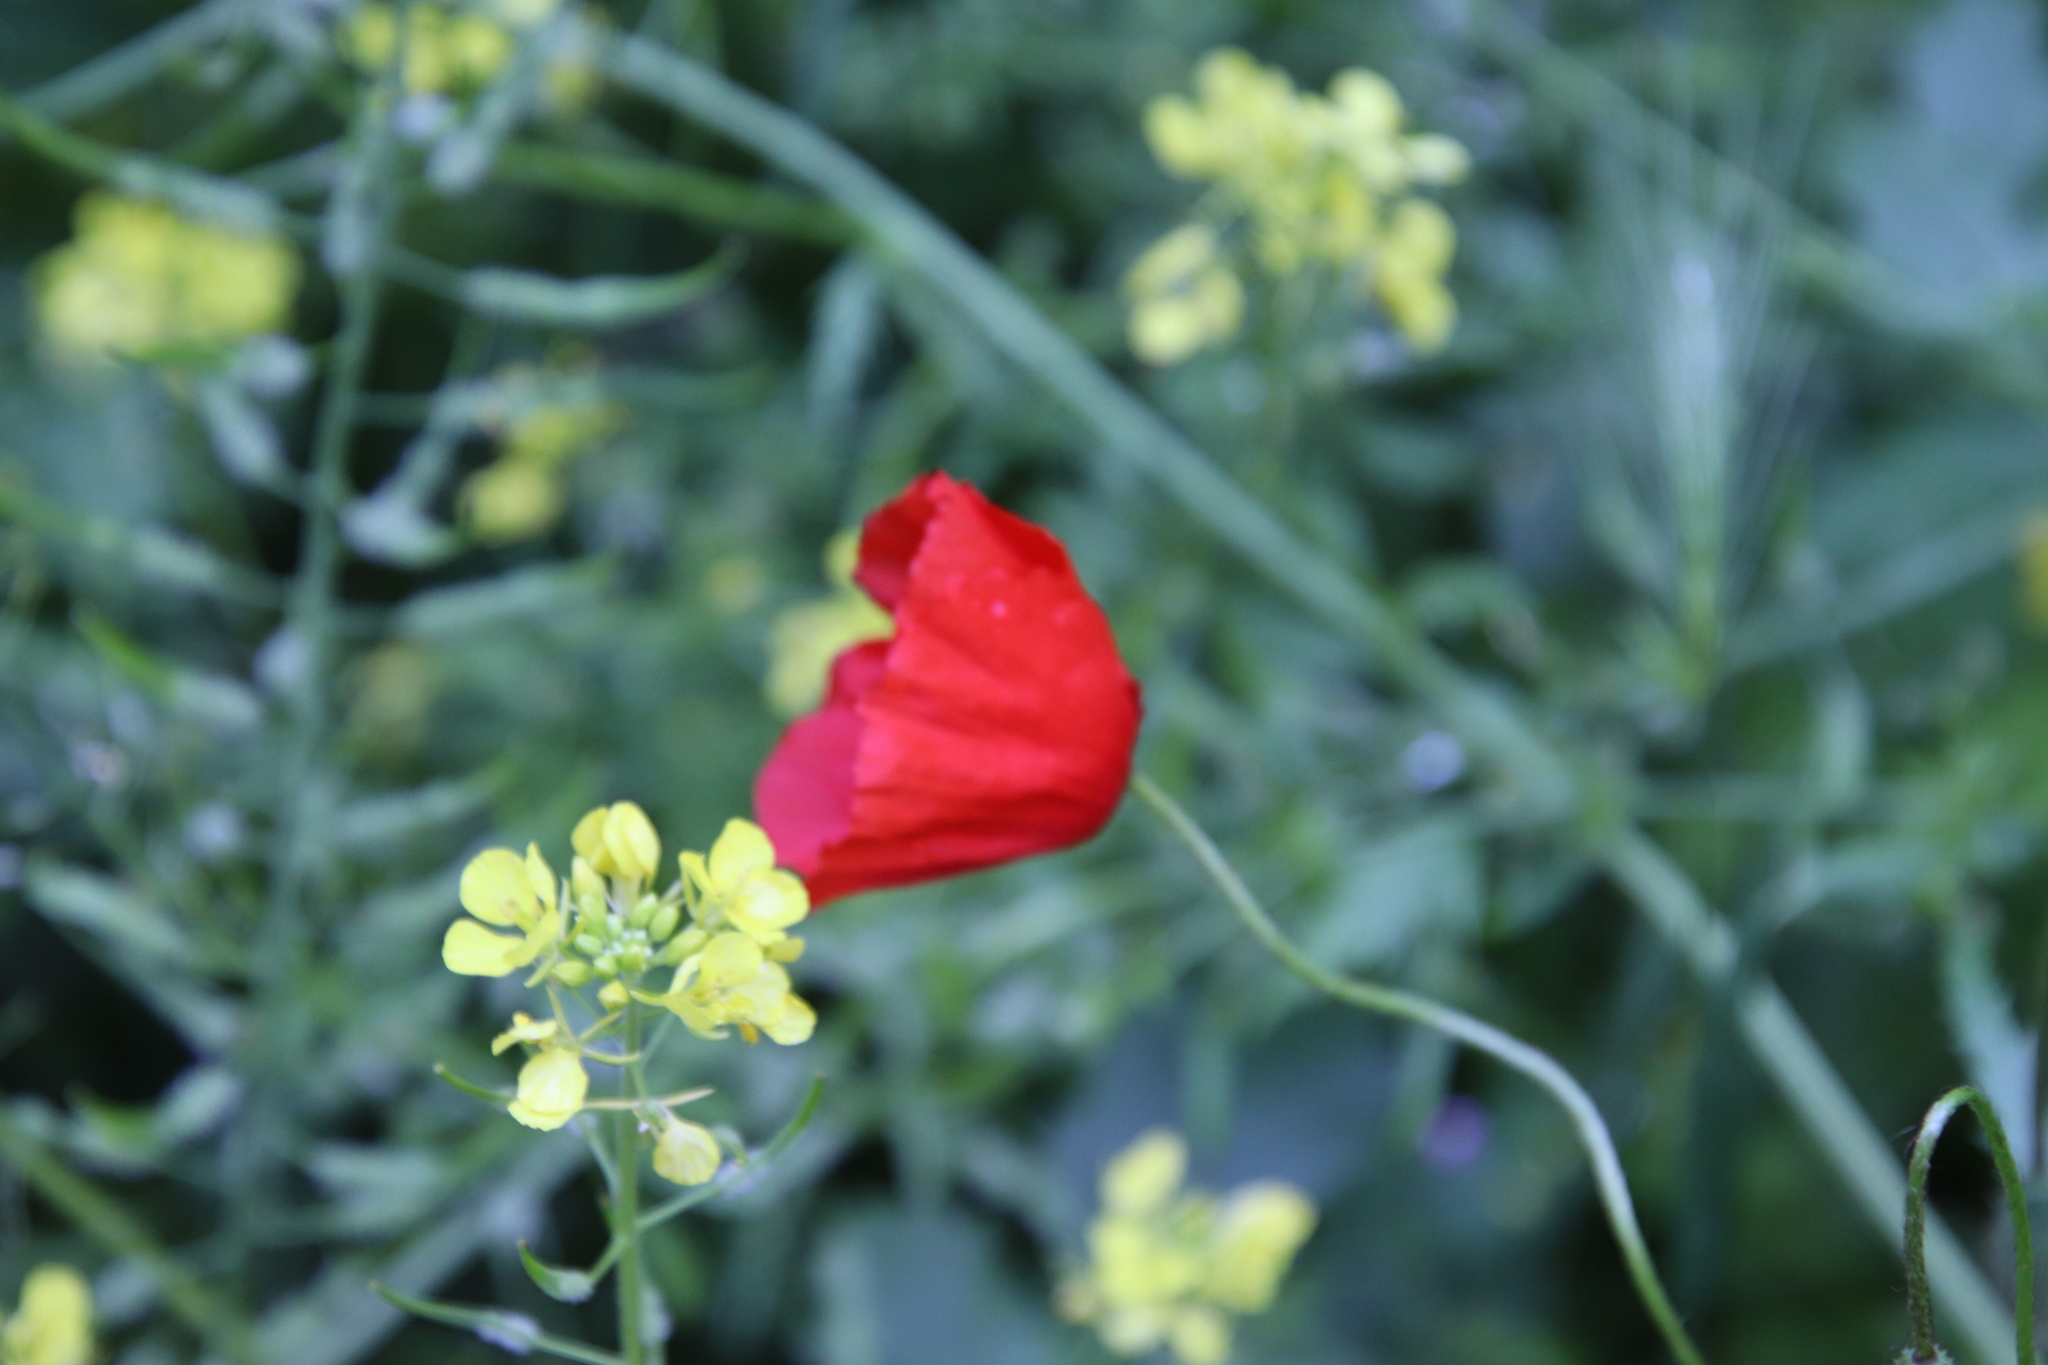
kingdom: Plantae
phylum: Tracheophyta
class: Magnoliopsida
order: Ranunculales
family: Papaveraceae
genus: Papaver
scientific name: Papaver rhoeas
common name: Corn poppy
